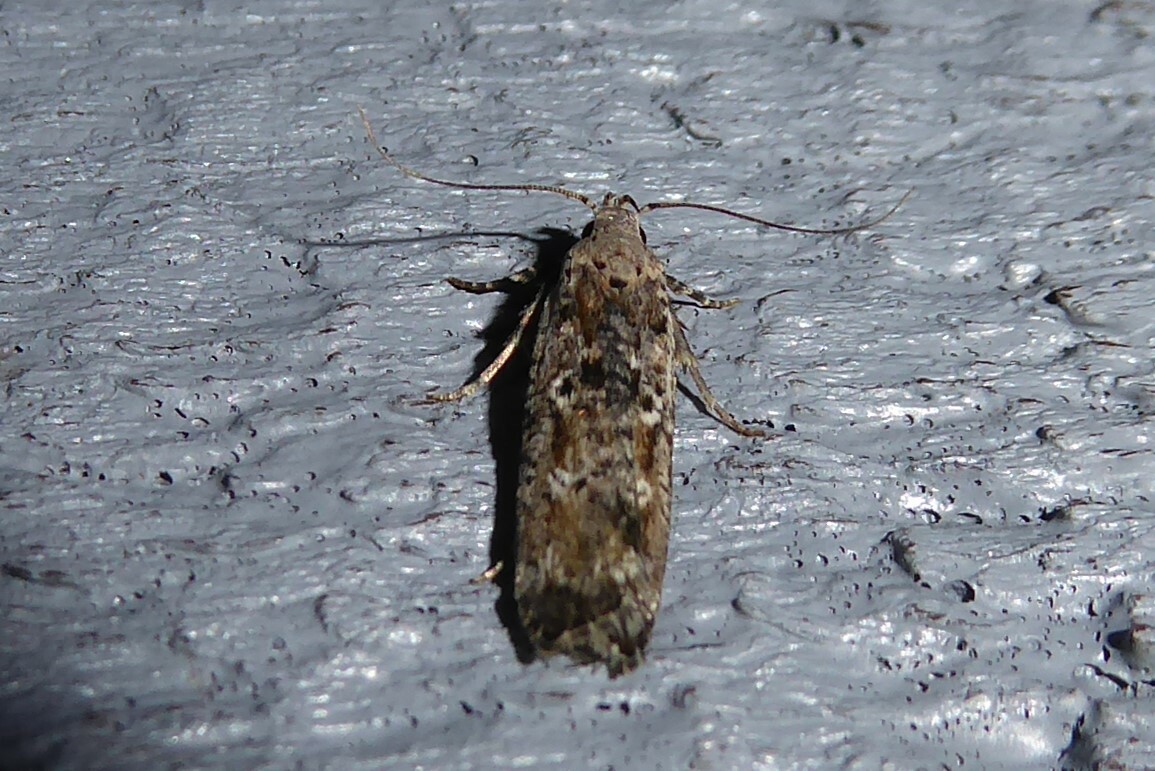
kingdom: Animalia
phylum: Arthropoda
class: Insecta
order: Lepidoptera
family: Gelechiidae
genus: Anisoplaca
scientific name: Anisoplaca achyrota
